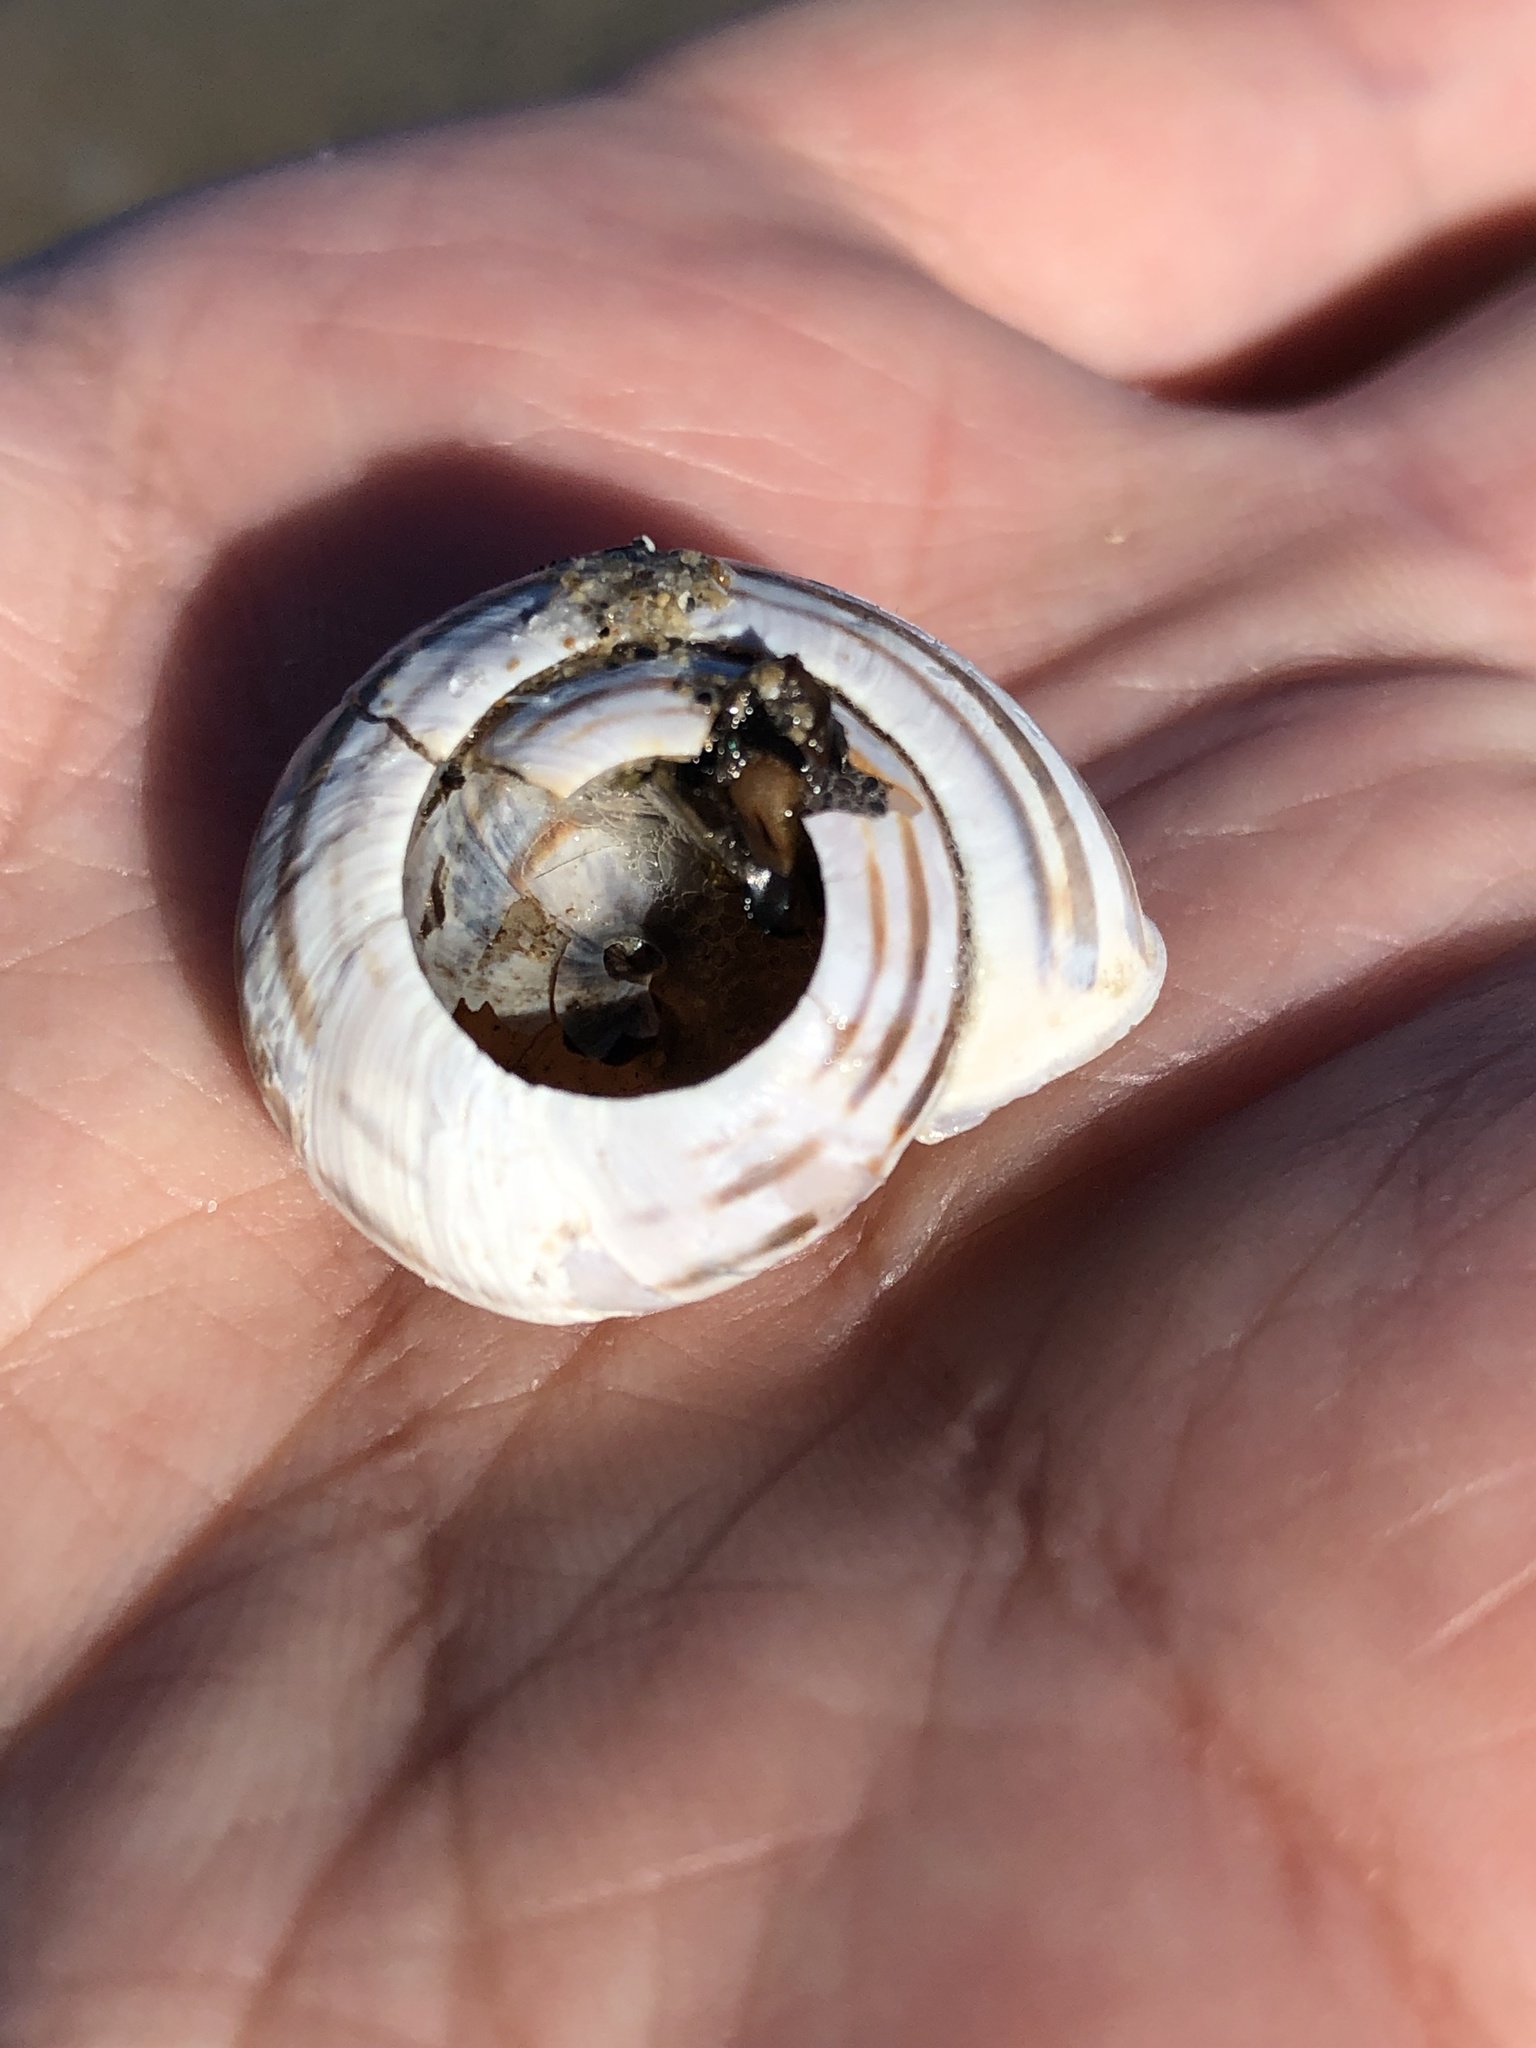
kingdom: Animalia
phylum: Mollusca
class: Gastropoda
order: Stylommatophora
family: Helicidae
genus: Cepaea
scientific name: Cepaea nemoralis
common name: Grovesnail
